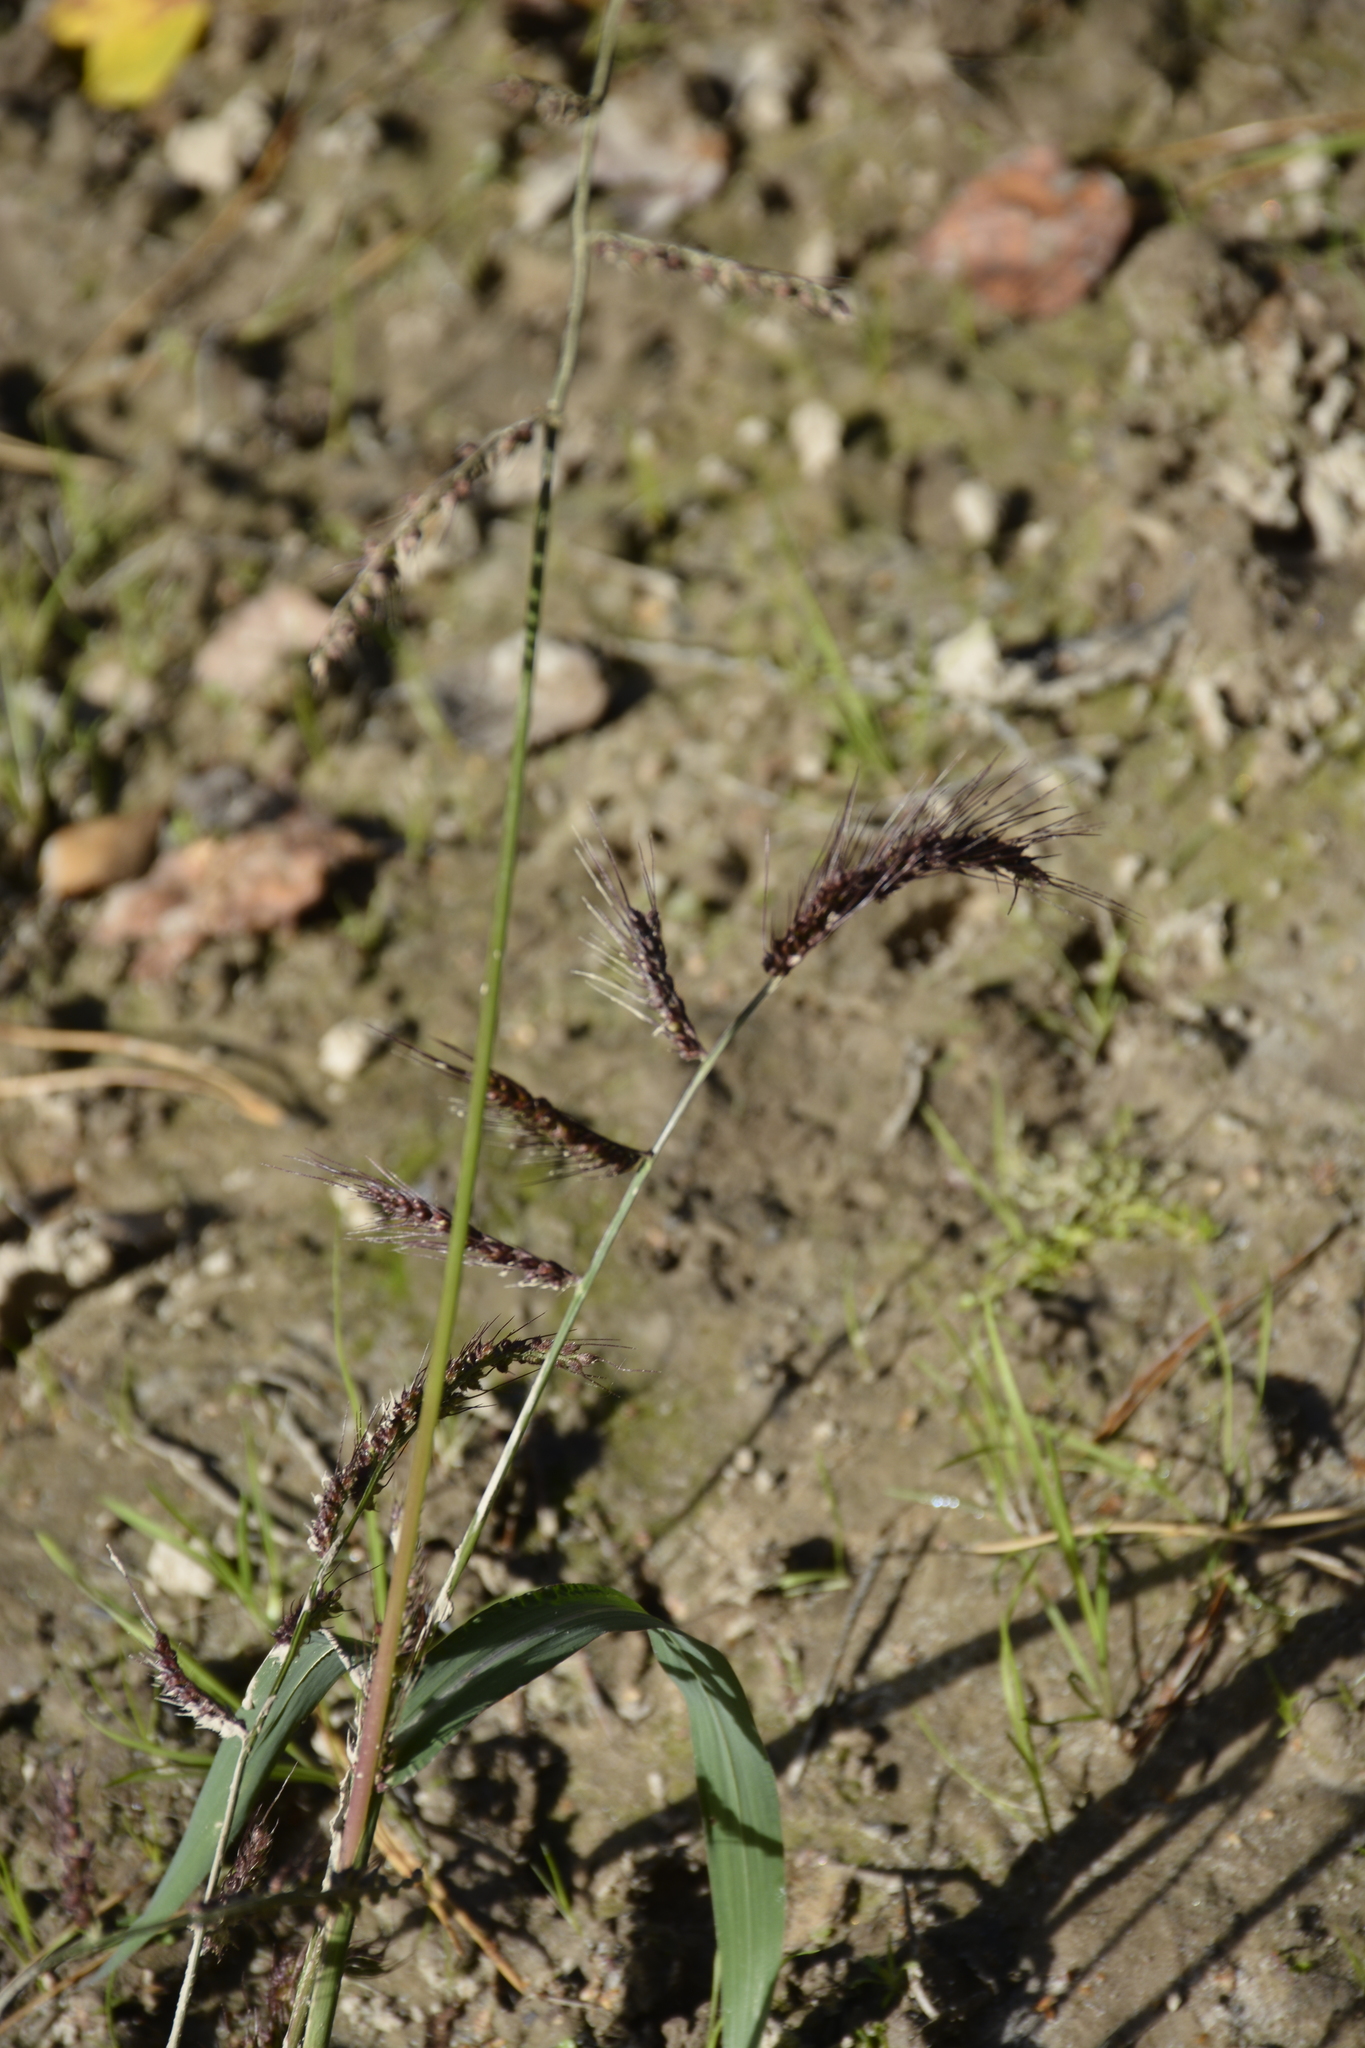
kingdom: Plantae
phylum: Tracheophyta
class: Liliopsida
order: Poales
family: Poaceae
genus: Echinochloa
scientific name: Echinochloa crus-galli
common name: Cockspur
